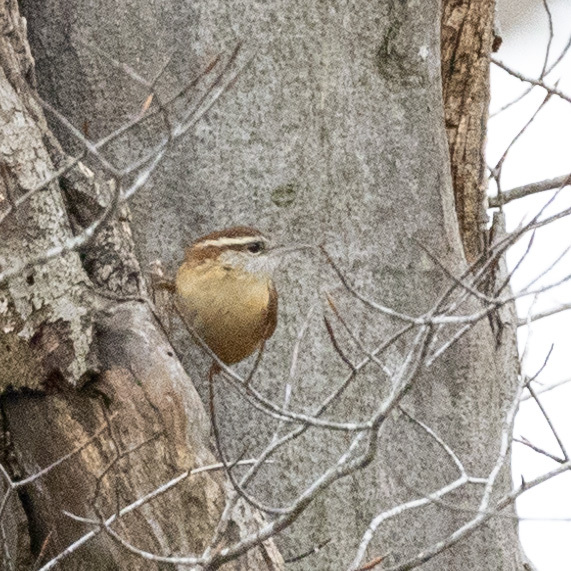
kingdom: Animalia
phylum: Chordata
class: Aves
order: Passeriformes
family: Troglodytidae
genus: Thryothorus
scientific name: Thryothorus ludovicianus
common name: Carolina wren
